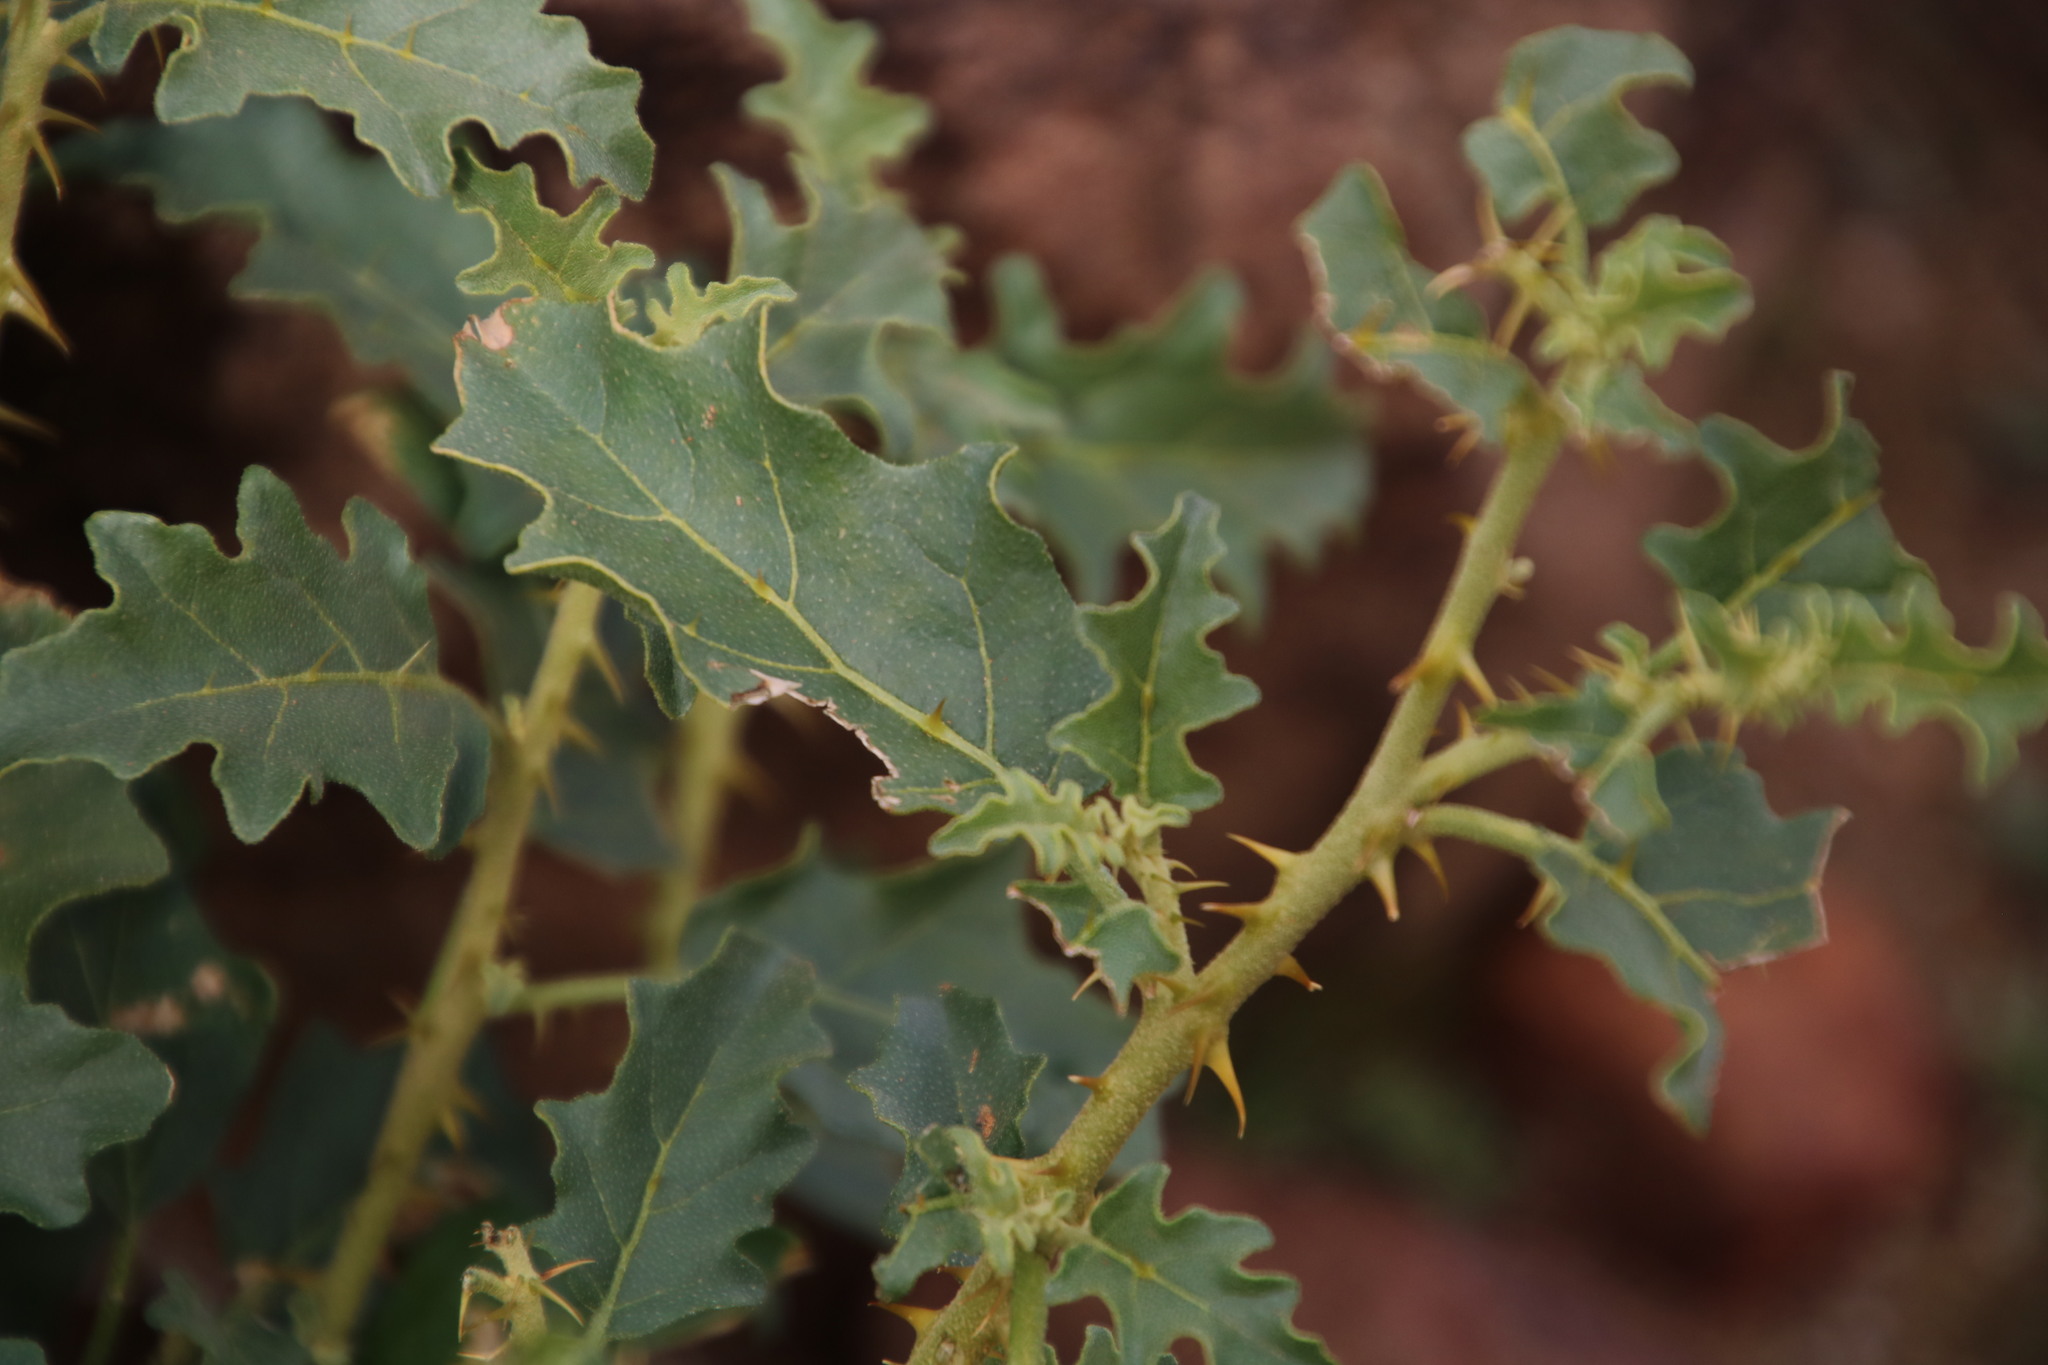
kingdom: Plantae
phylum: Tracheophyta
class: Magnoliopsida
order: Solanales
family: Solanaceae
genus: Solanum
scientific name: Solanum capense
